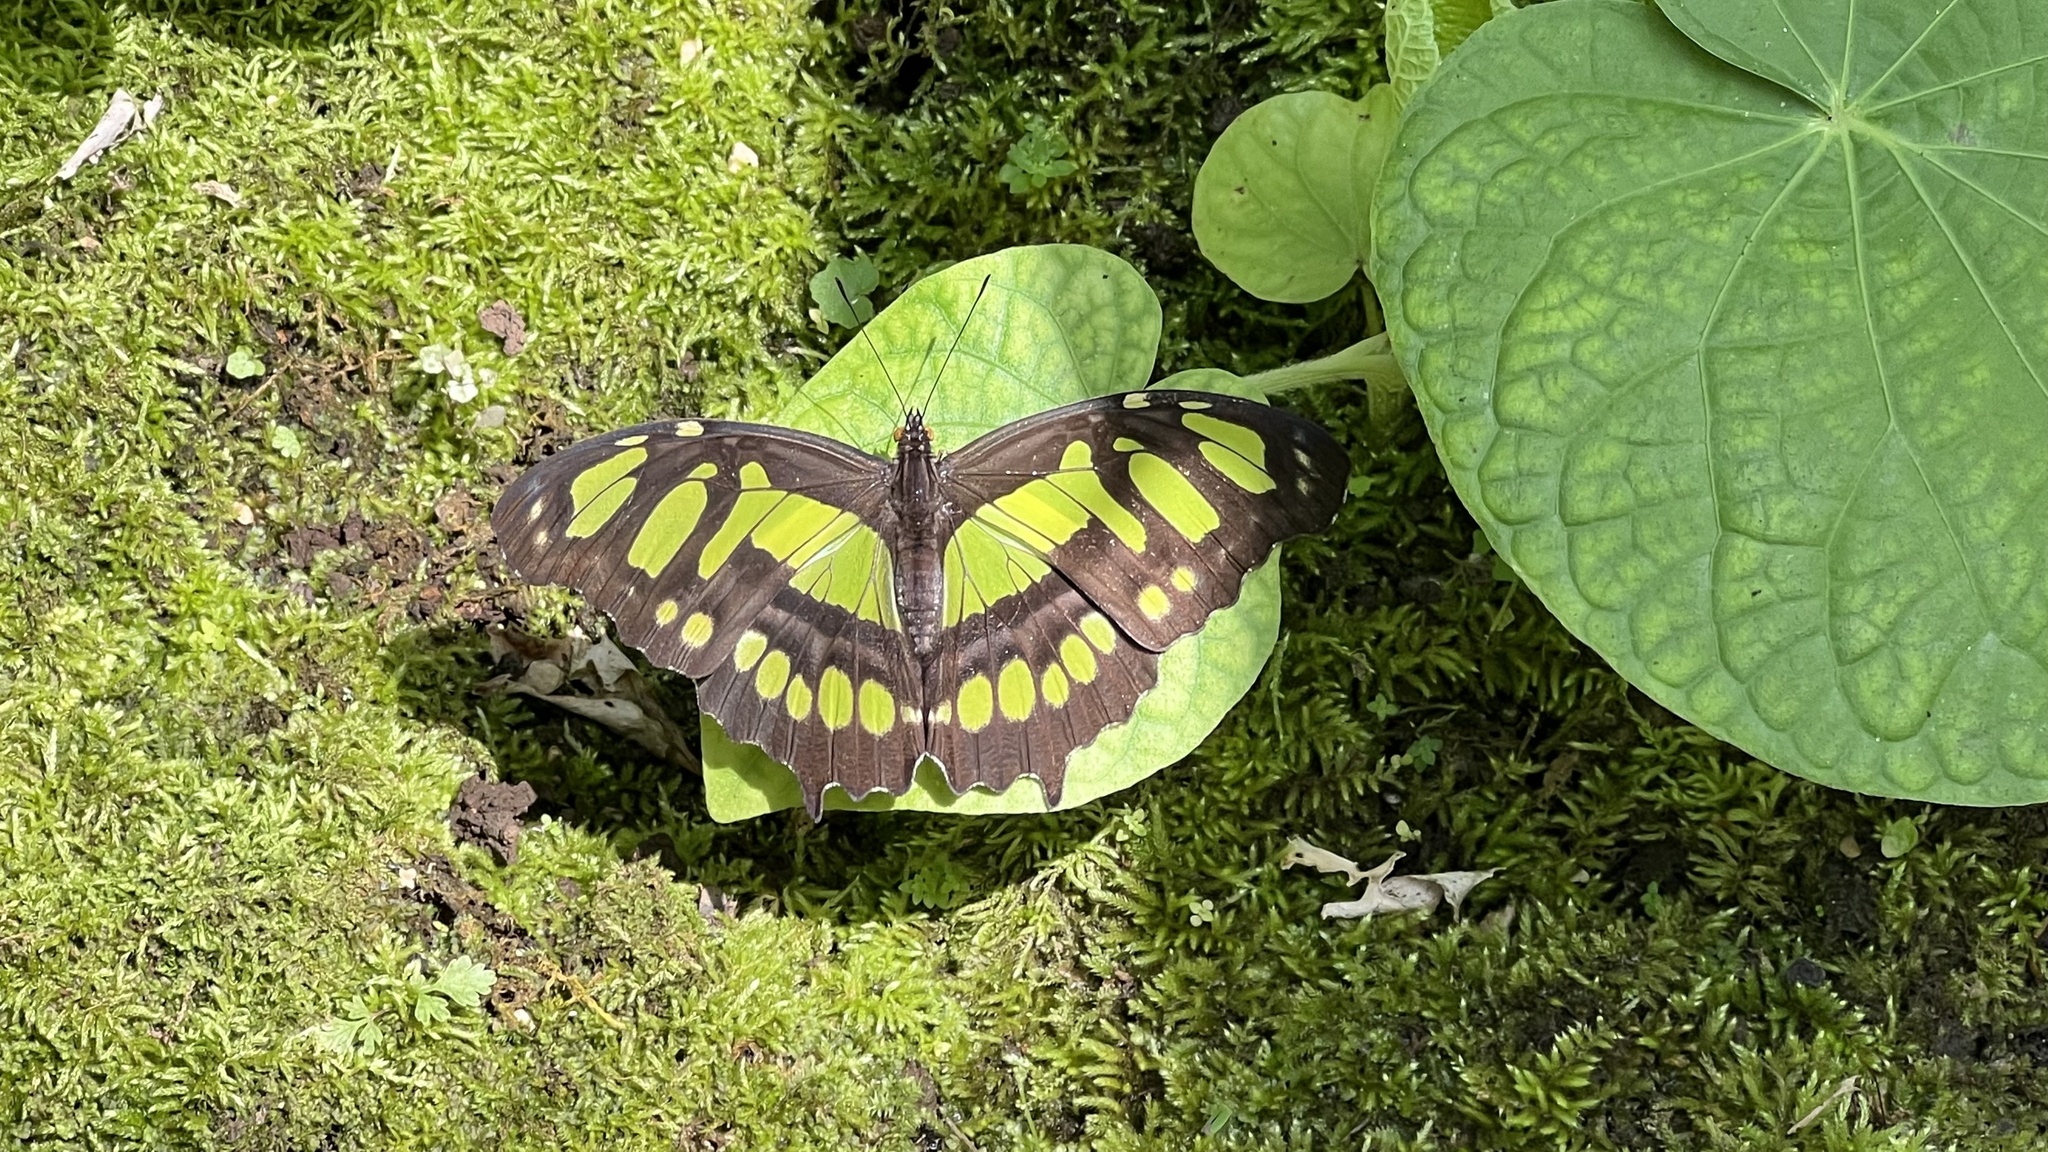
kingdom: Animalia
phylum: Arthropoda
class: Insecta
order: Lepidoptera
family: Nymphalidae
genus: Siproeta
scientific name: Siproeta stelenes
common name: Malachite
